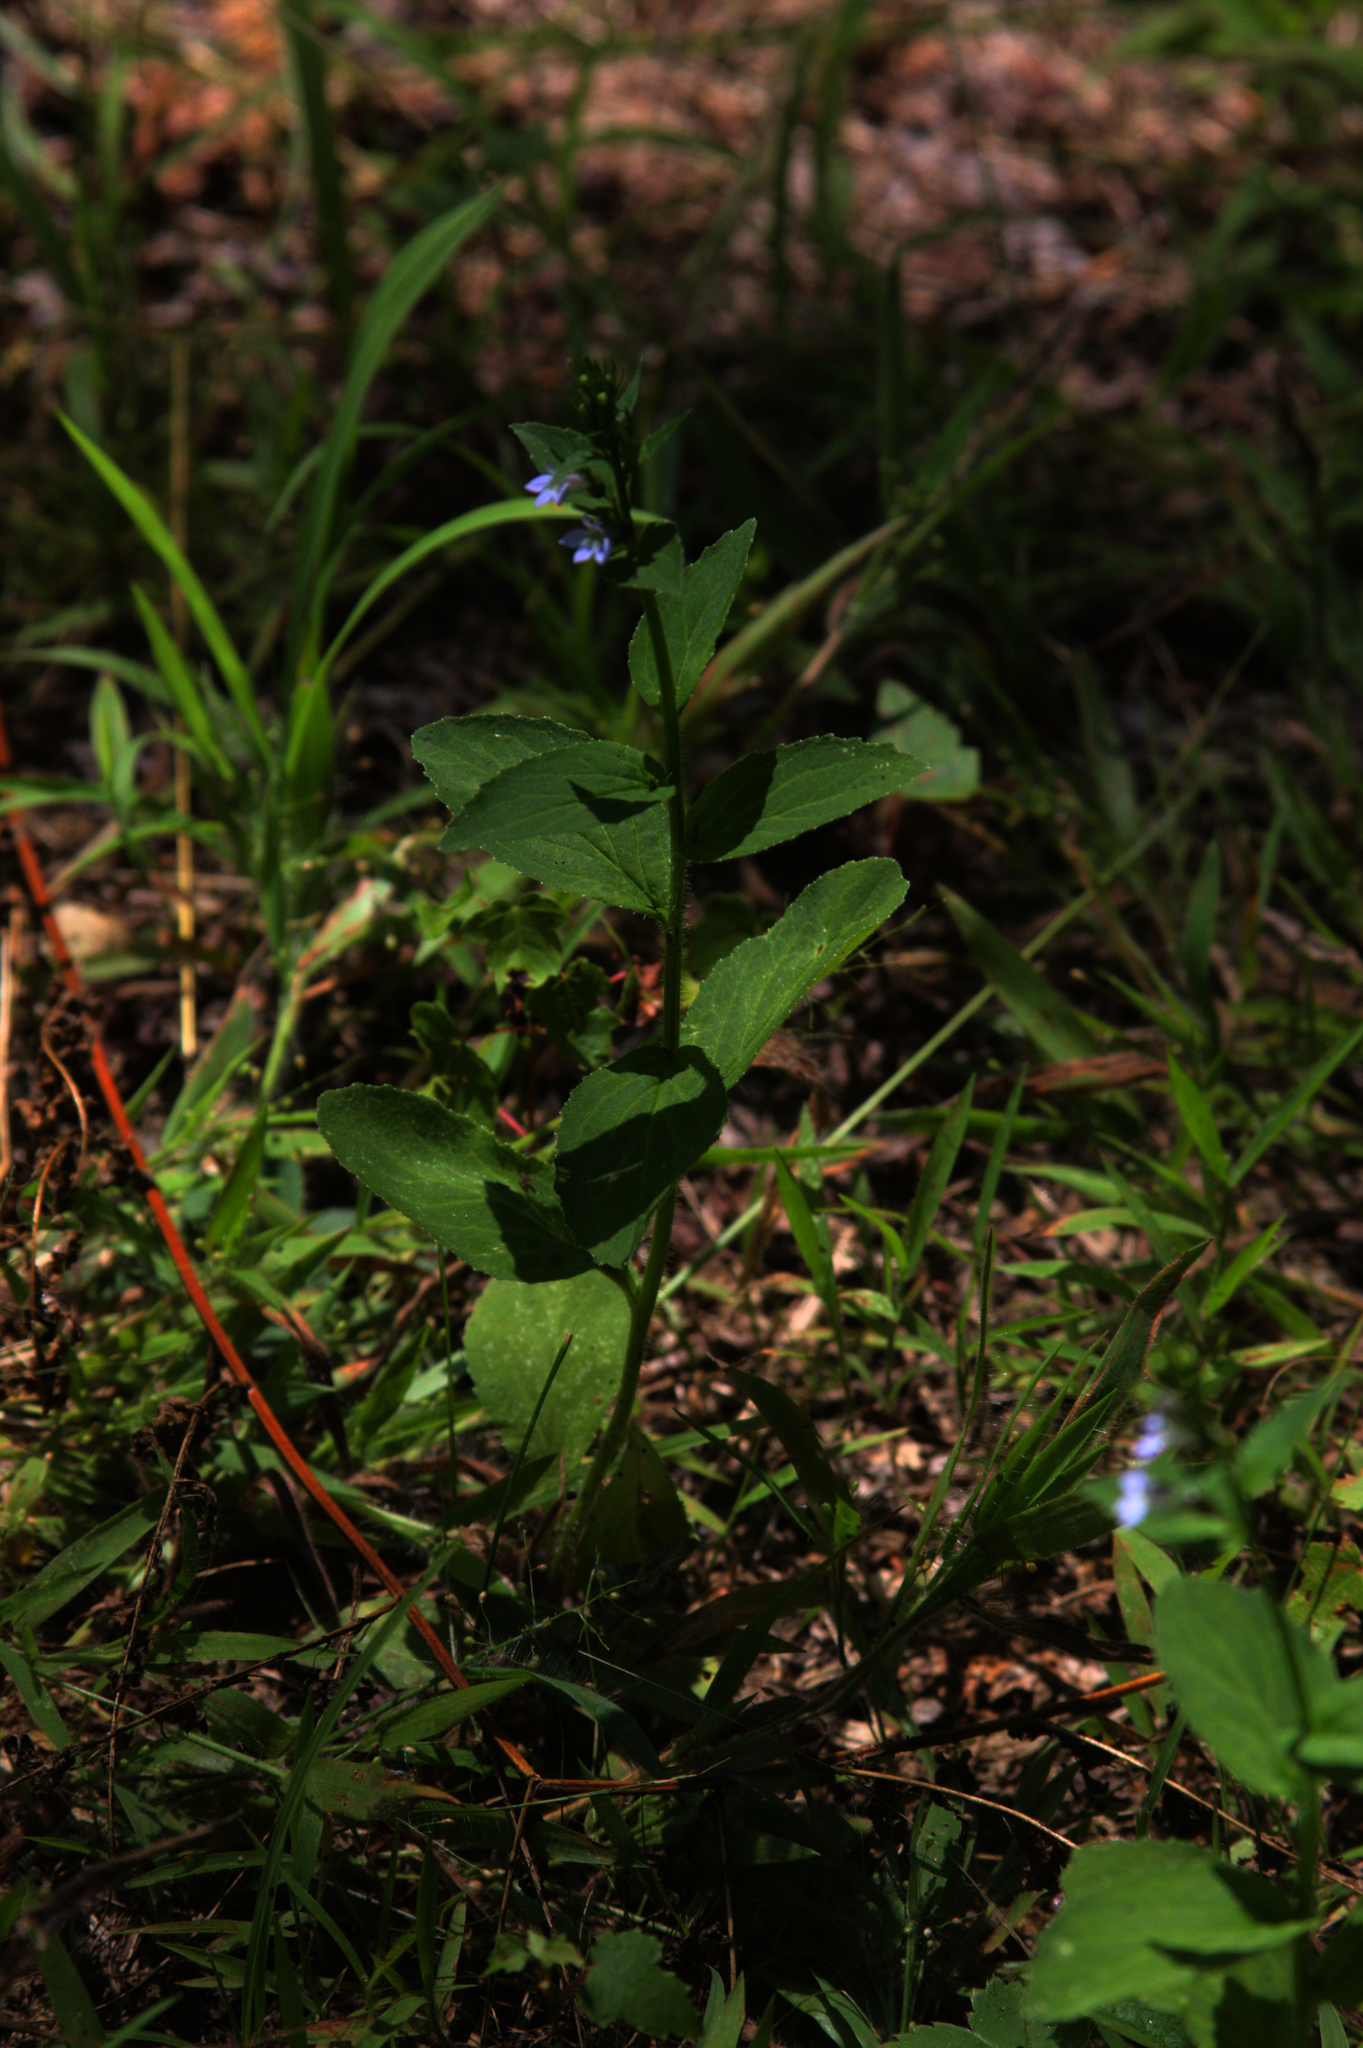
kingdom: Plantae
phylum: Tracheophyta
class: Magnoliopsida
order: Asterales
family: Campanulaceae
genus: Lobelia
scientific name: Lobelia inflata
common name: Indian tobacco
